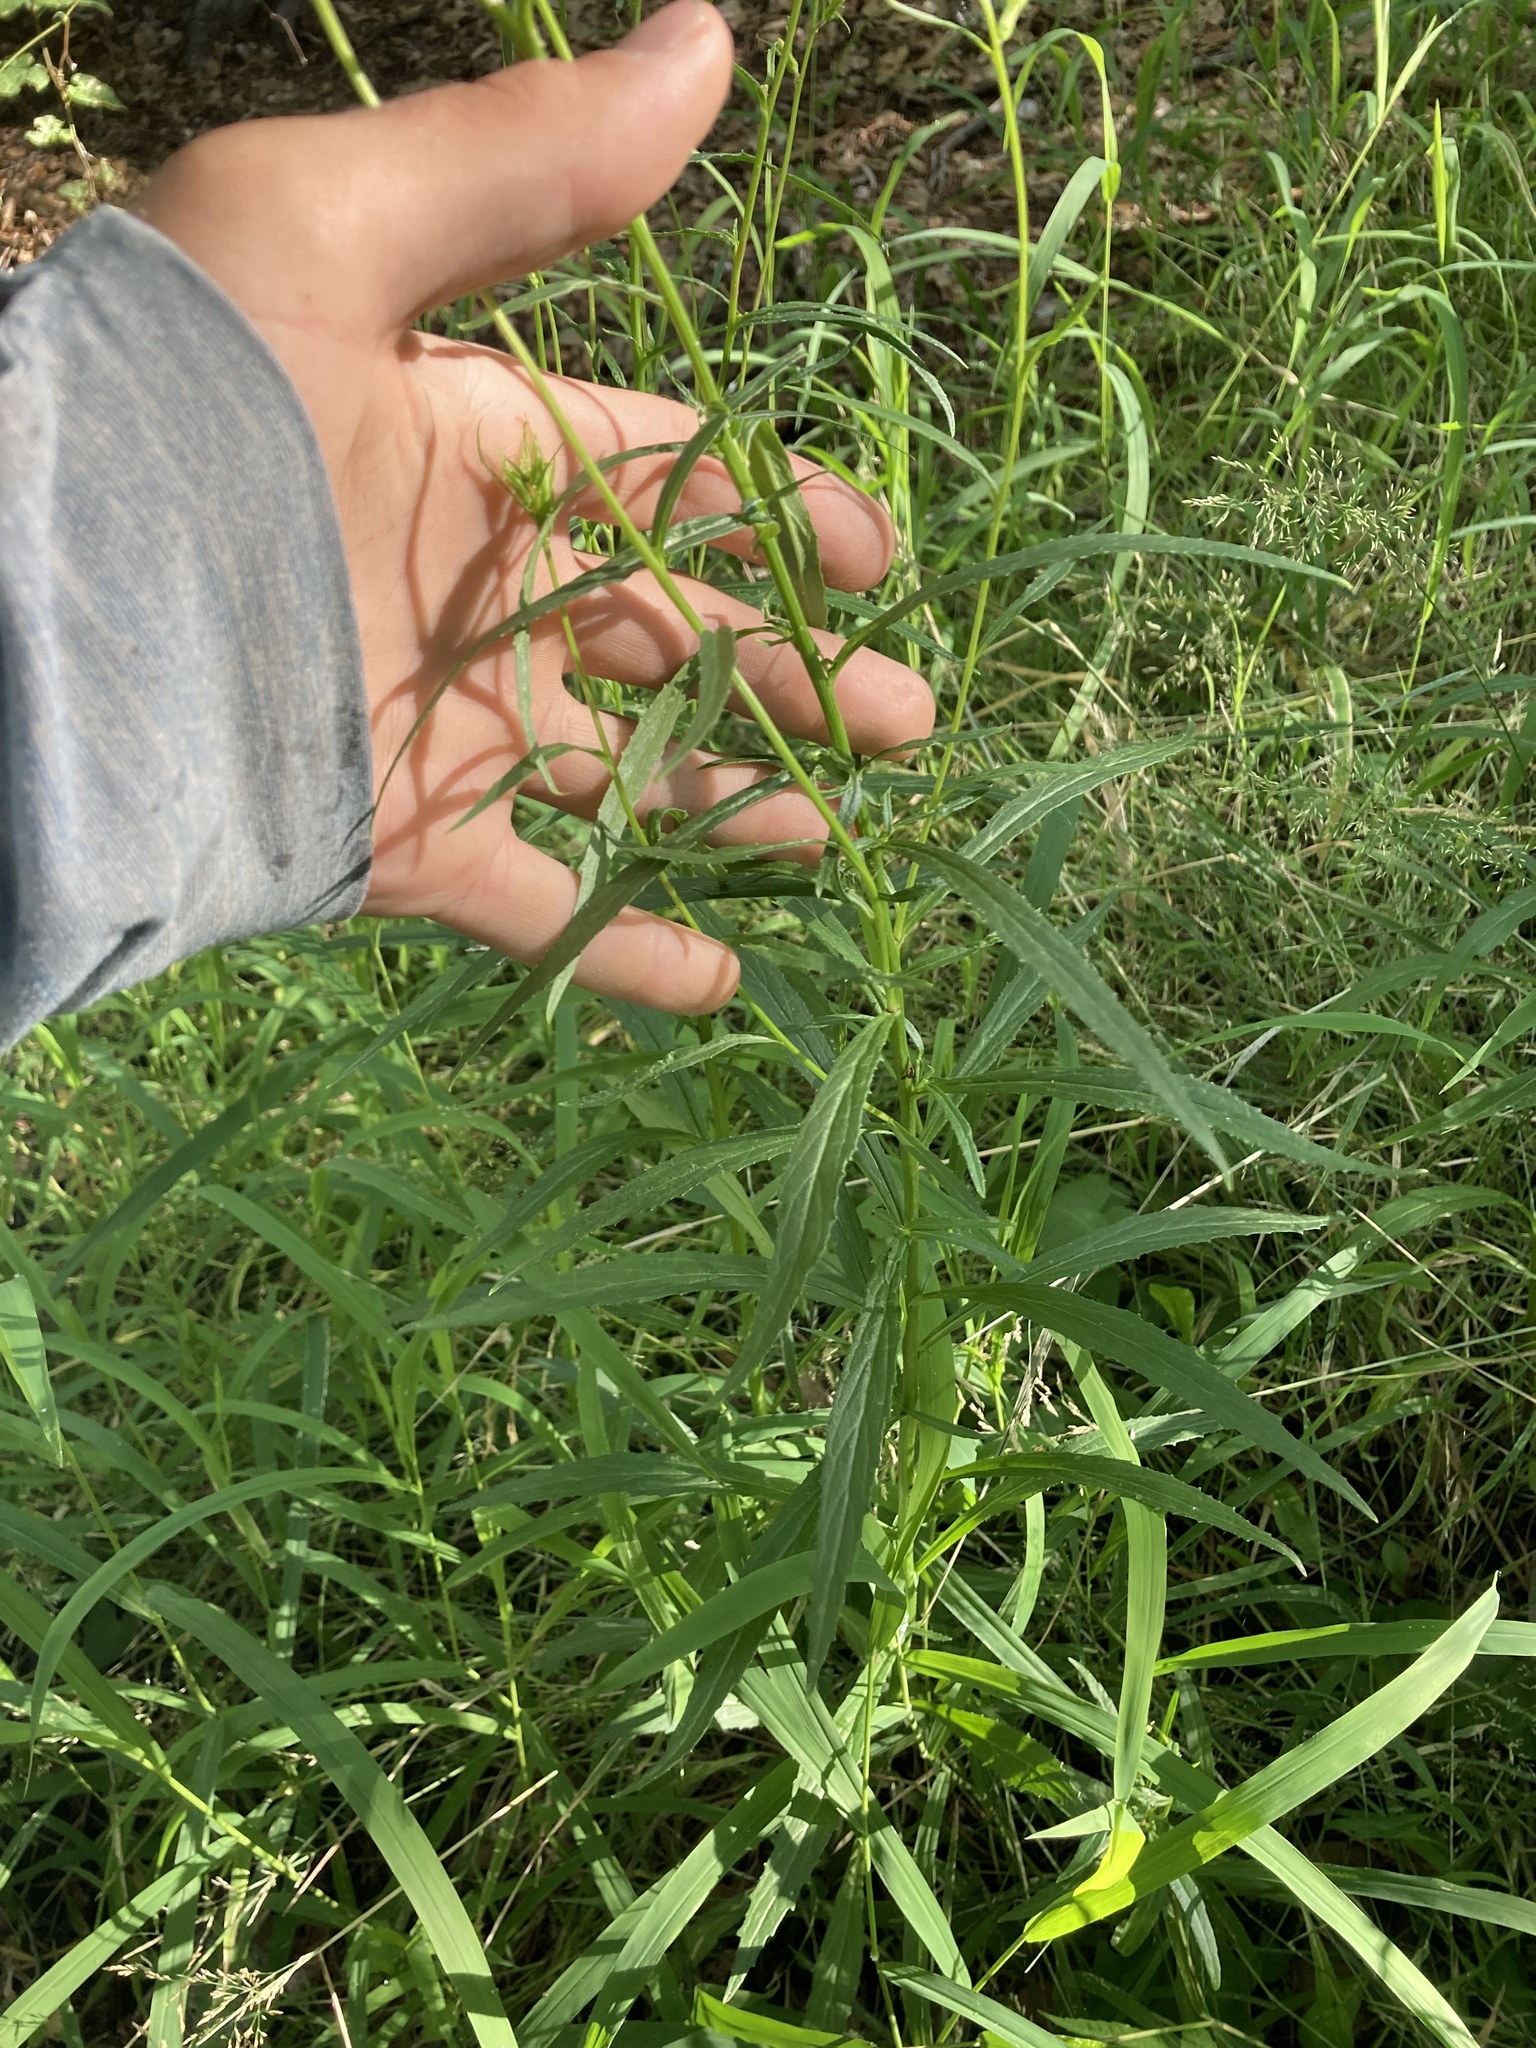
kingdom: Plantae
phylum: Tracheophyta
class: Magnoliopsida
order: Asterales
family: Campanulaceae
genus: Lobelia
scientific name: Lobelia cardinalis
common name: Cardinal flower
